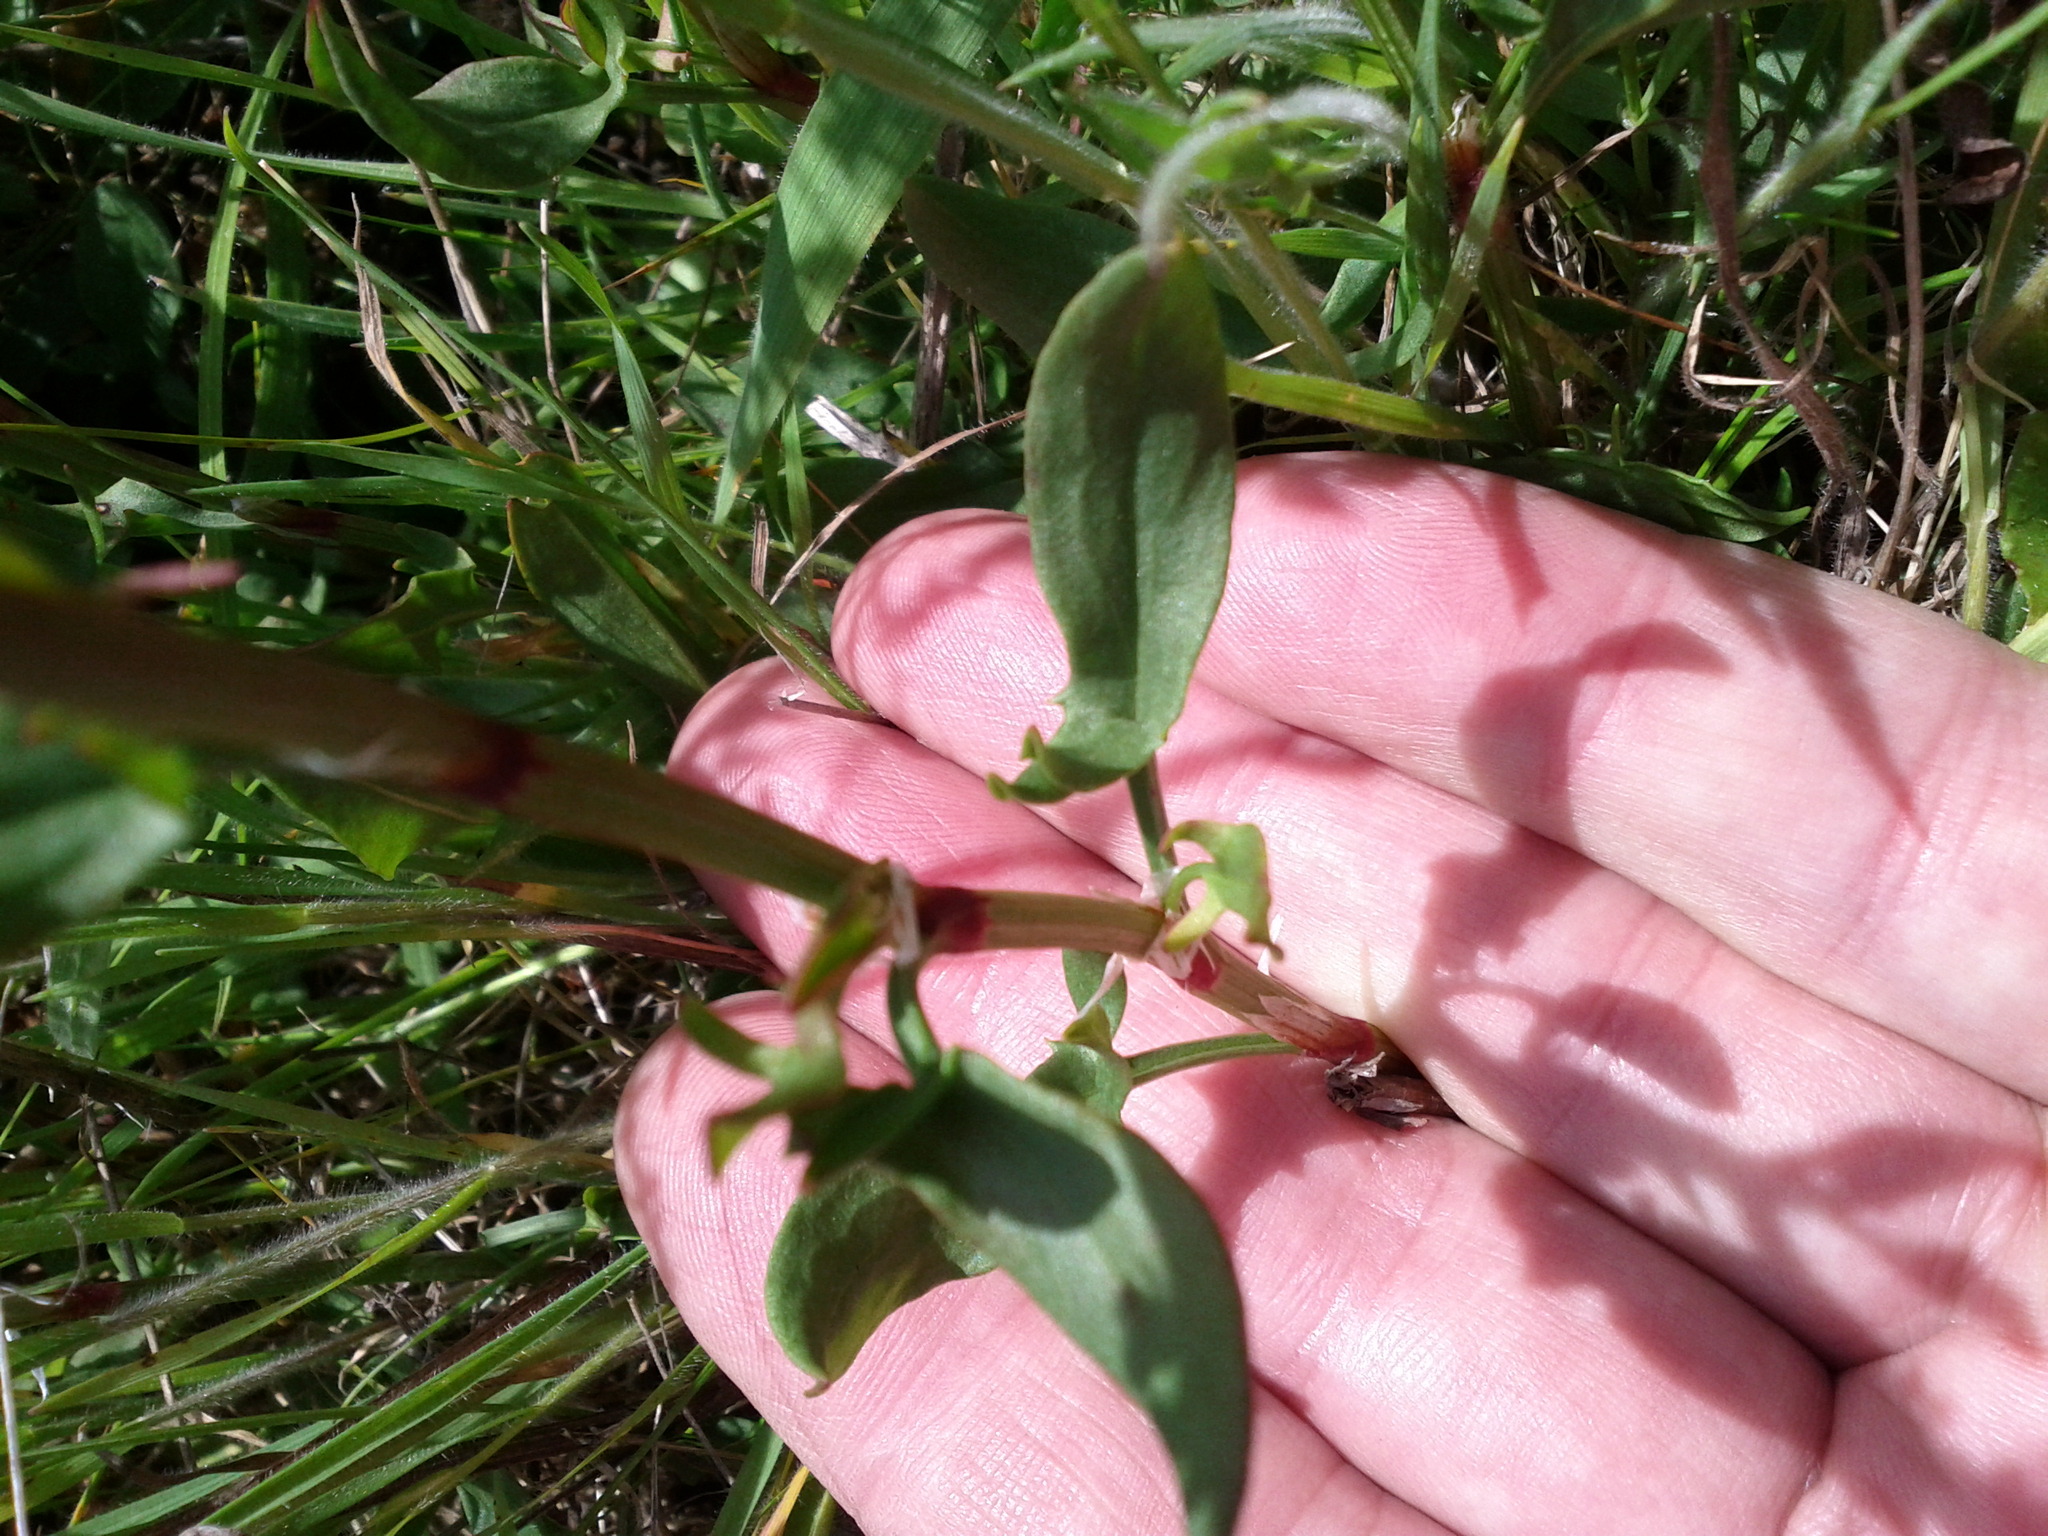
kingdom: Plantae
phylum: Tracheophyta
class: Magnoliopsida
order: Caryophyllales
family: Polygonaceae
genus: Rumex
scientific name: Rumex acetosella
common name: Common sheep sorrel
